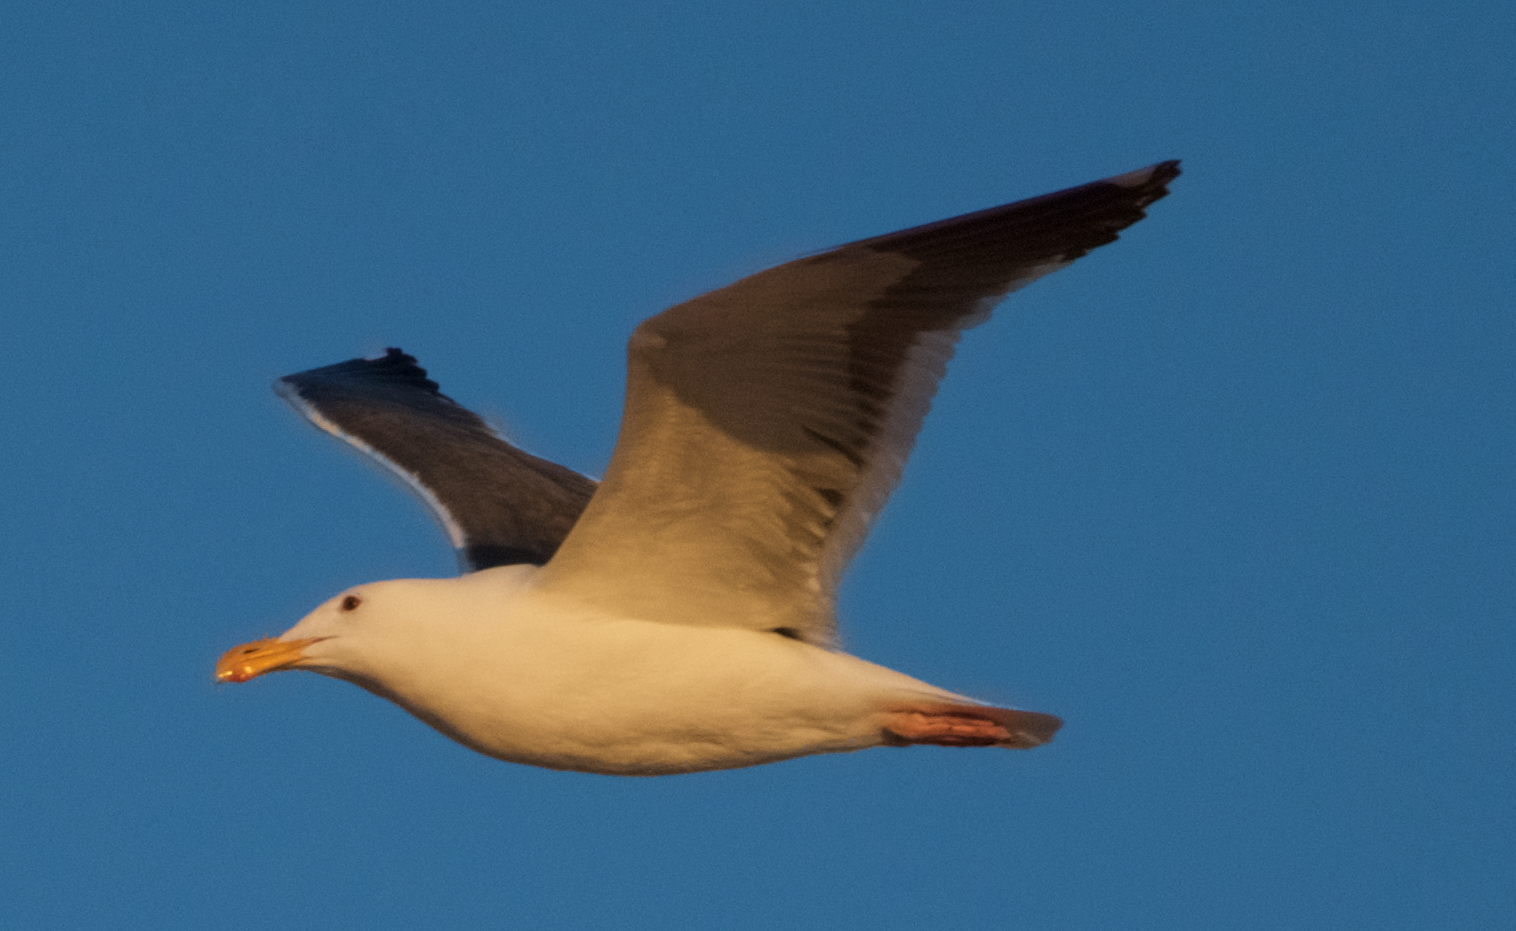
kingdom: Animalia
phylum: Chordata
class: Aves
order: Charadriiformes
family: Laridae
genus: Larus
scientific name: Larus occidentalis
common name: Western gull
